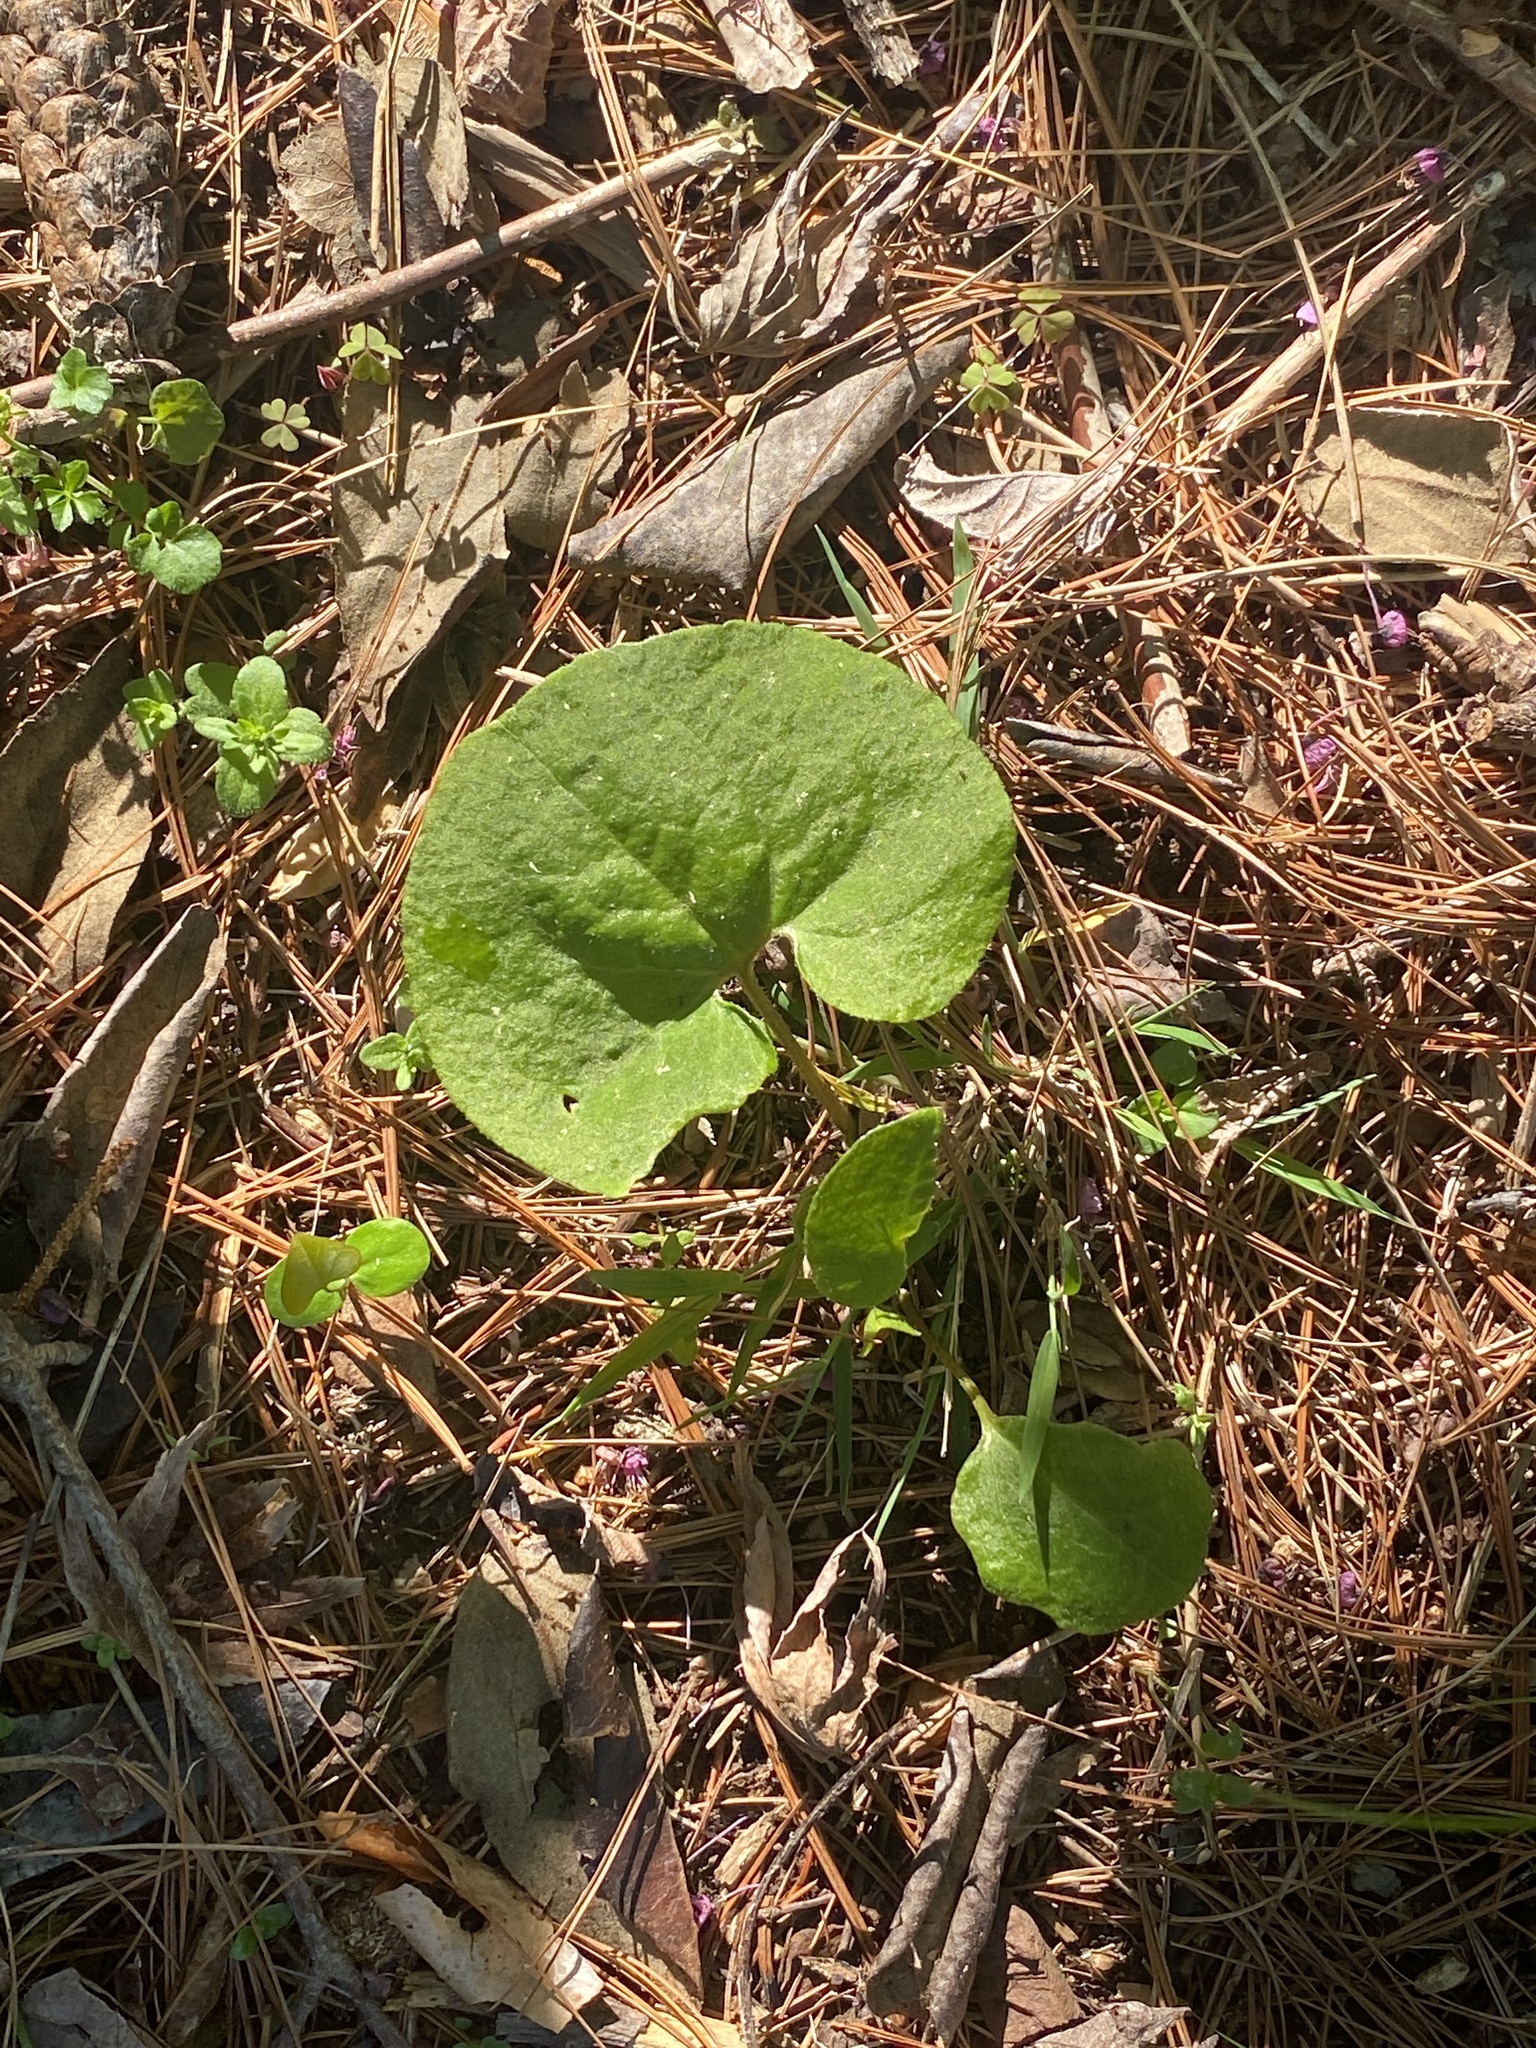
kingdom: Plantae
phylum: Tracheophyta
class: Magnoliopsida
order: Piperales
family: Aristolochiaceae
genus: Asarum
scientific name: Asarum canadense
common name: Wild ginger
